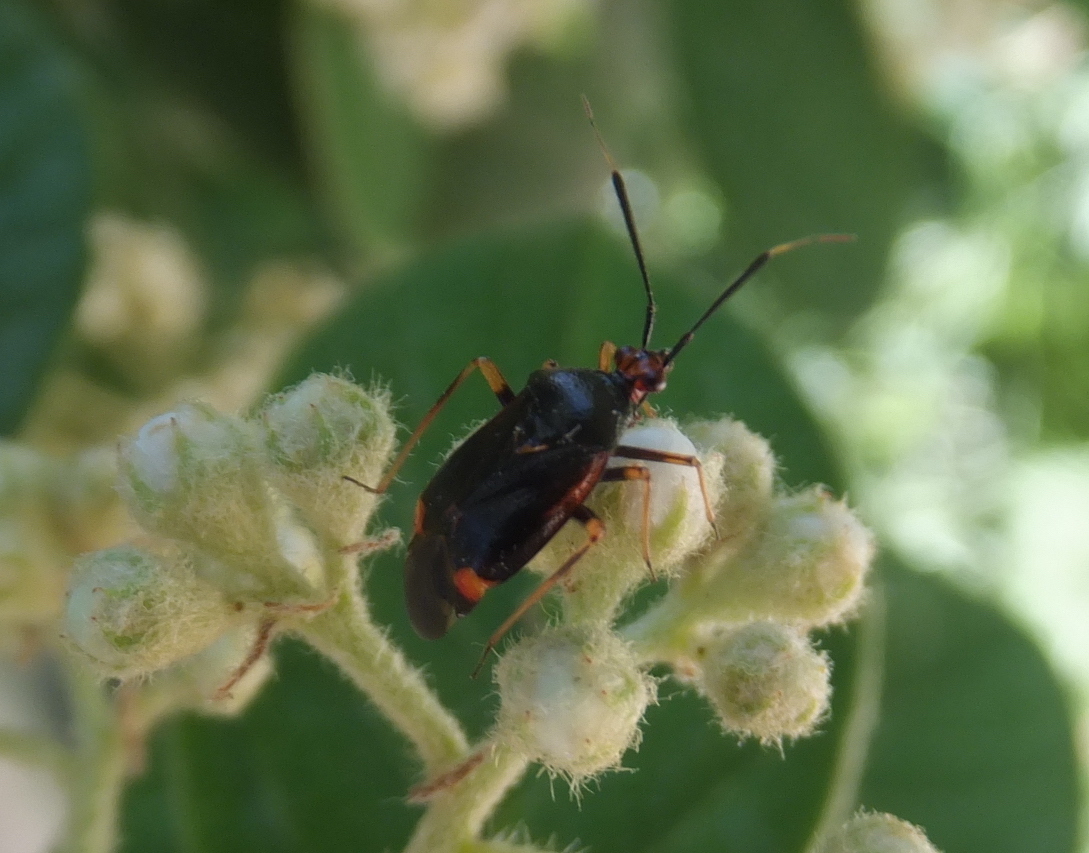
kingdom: Animalia
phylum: Arthropoda
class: Insecta
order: Hemiptera
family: Miridae
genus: Deraeocoris
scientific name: Deraeocoris ruber
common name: Plant bug
